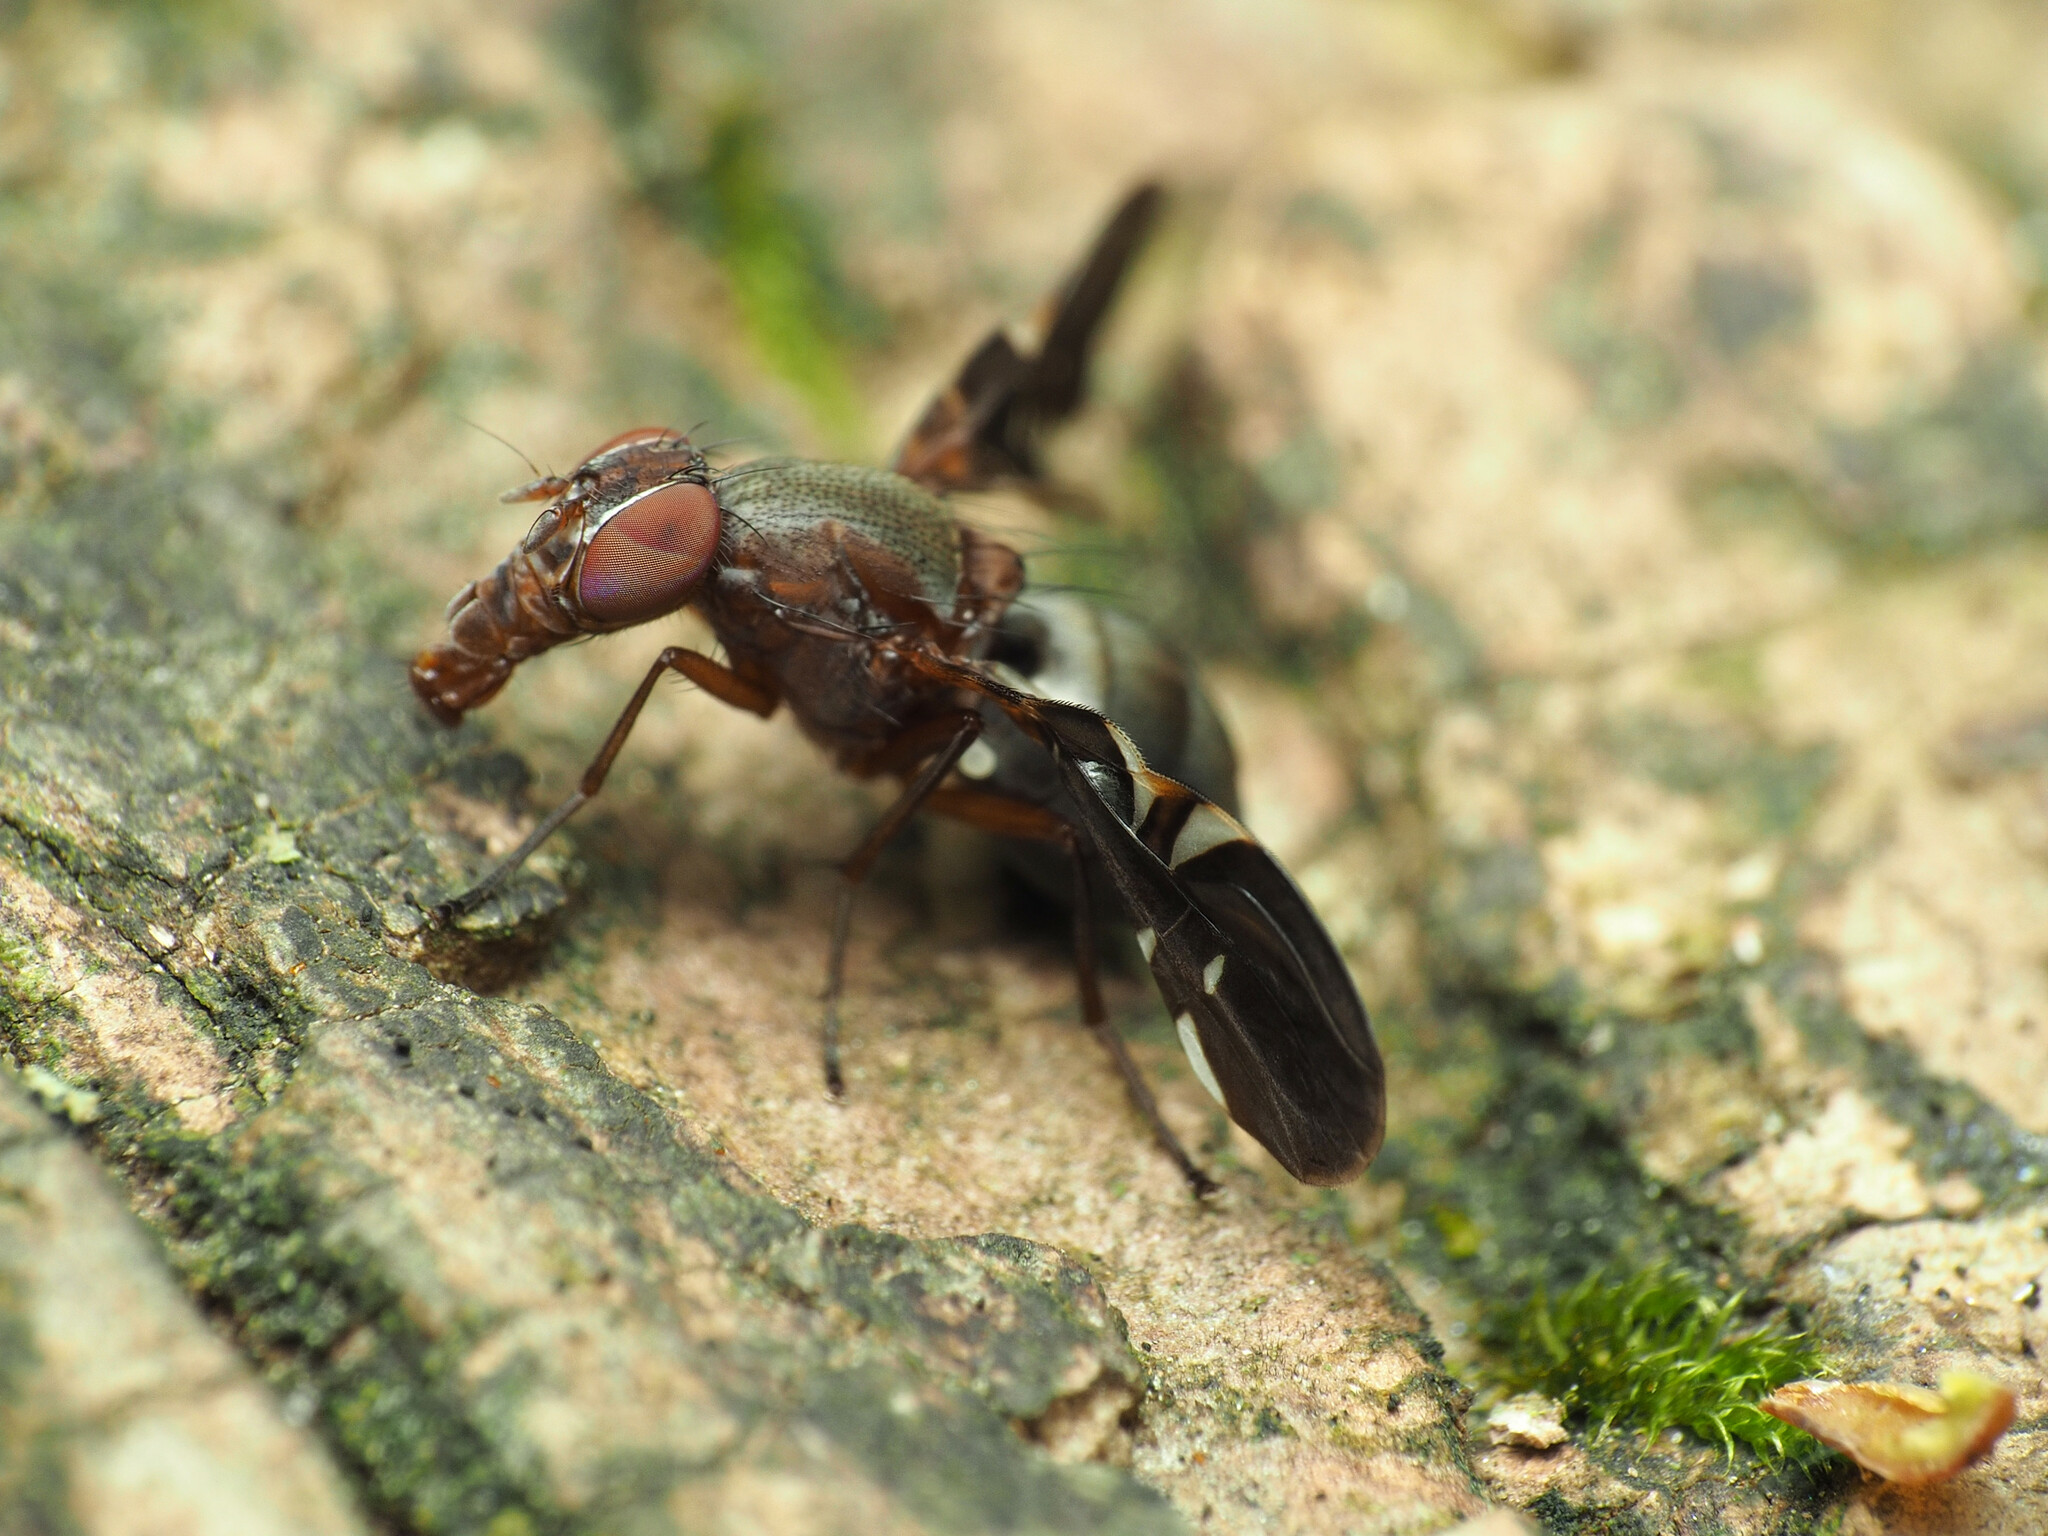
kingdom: Animalia
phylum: Arthropoda
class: Insecta
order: Diptera
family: Ulidiidae
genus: Delphinia
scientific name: Delphinia picta
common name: Common picture-winged fly
